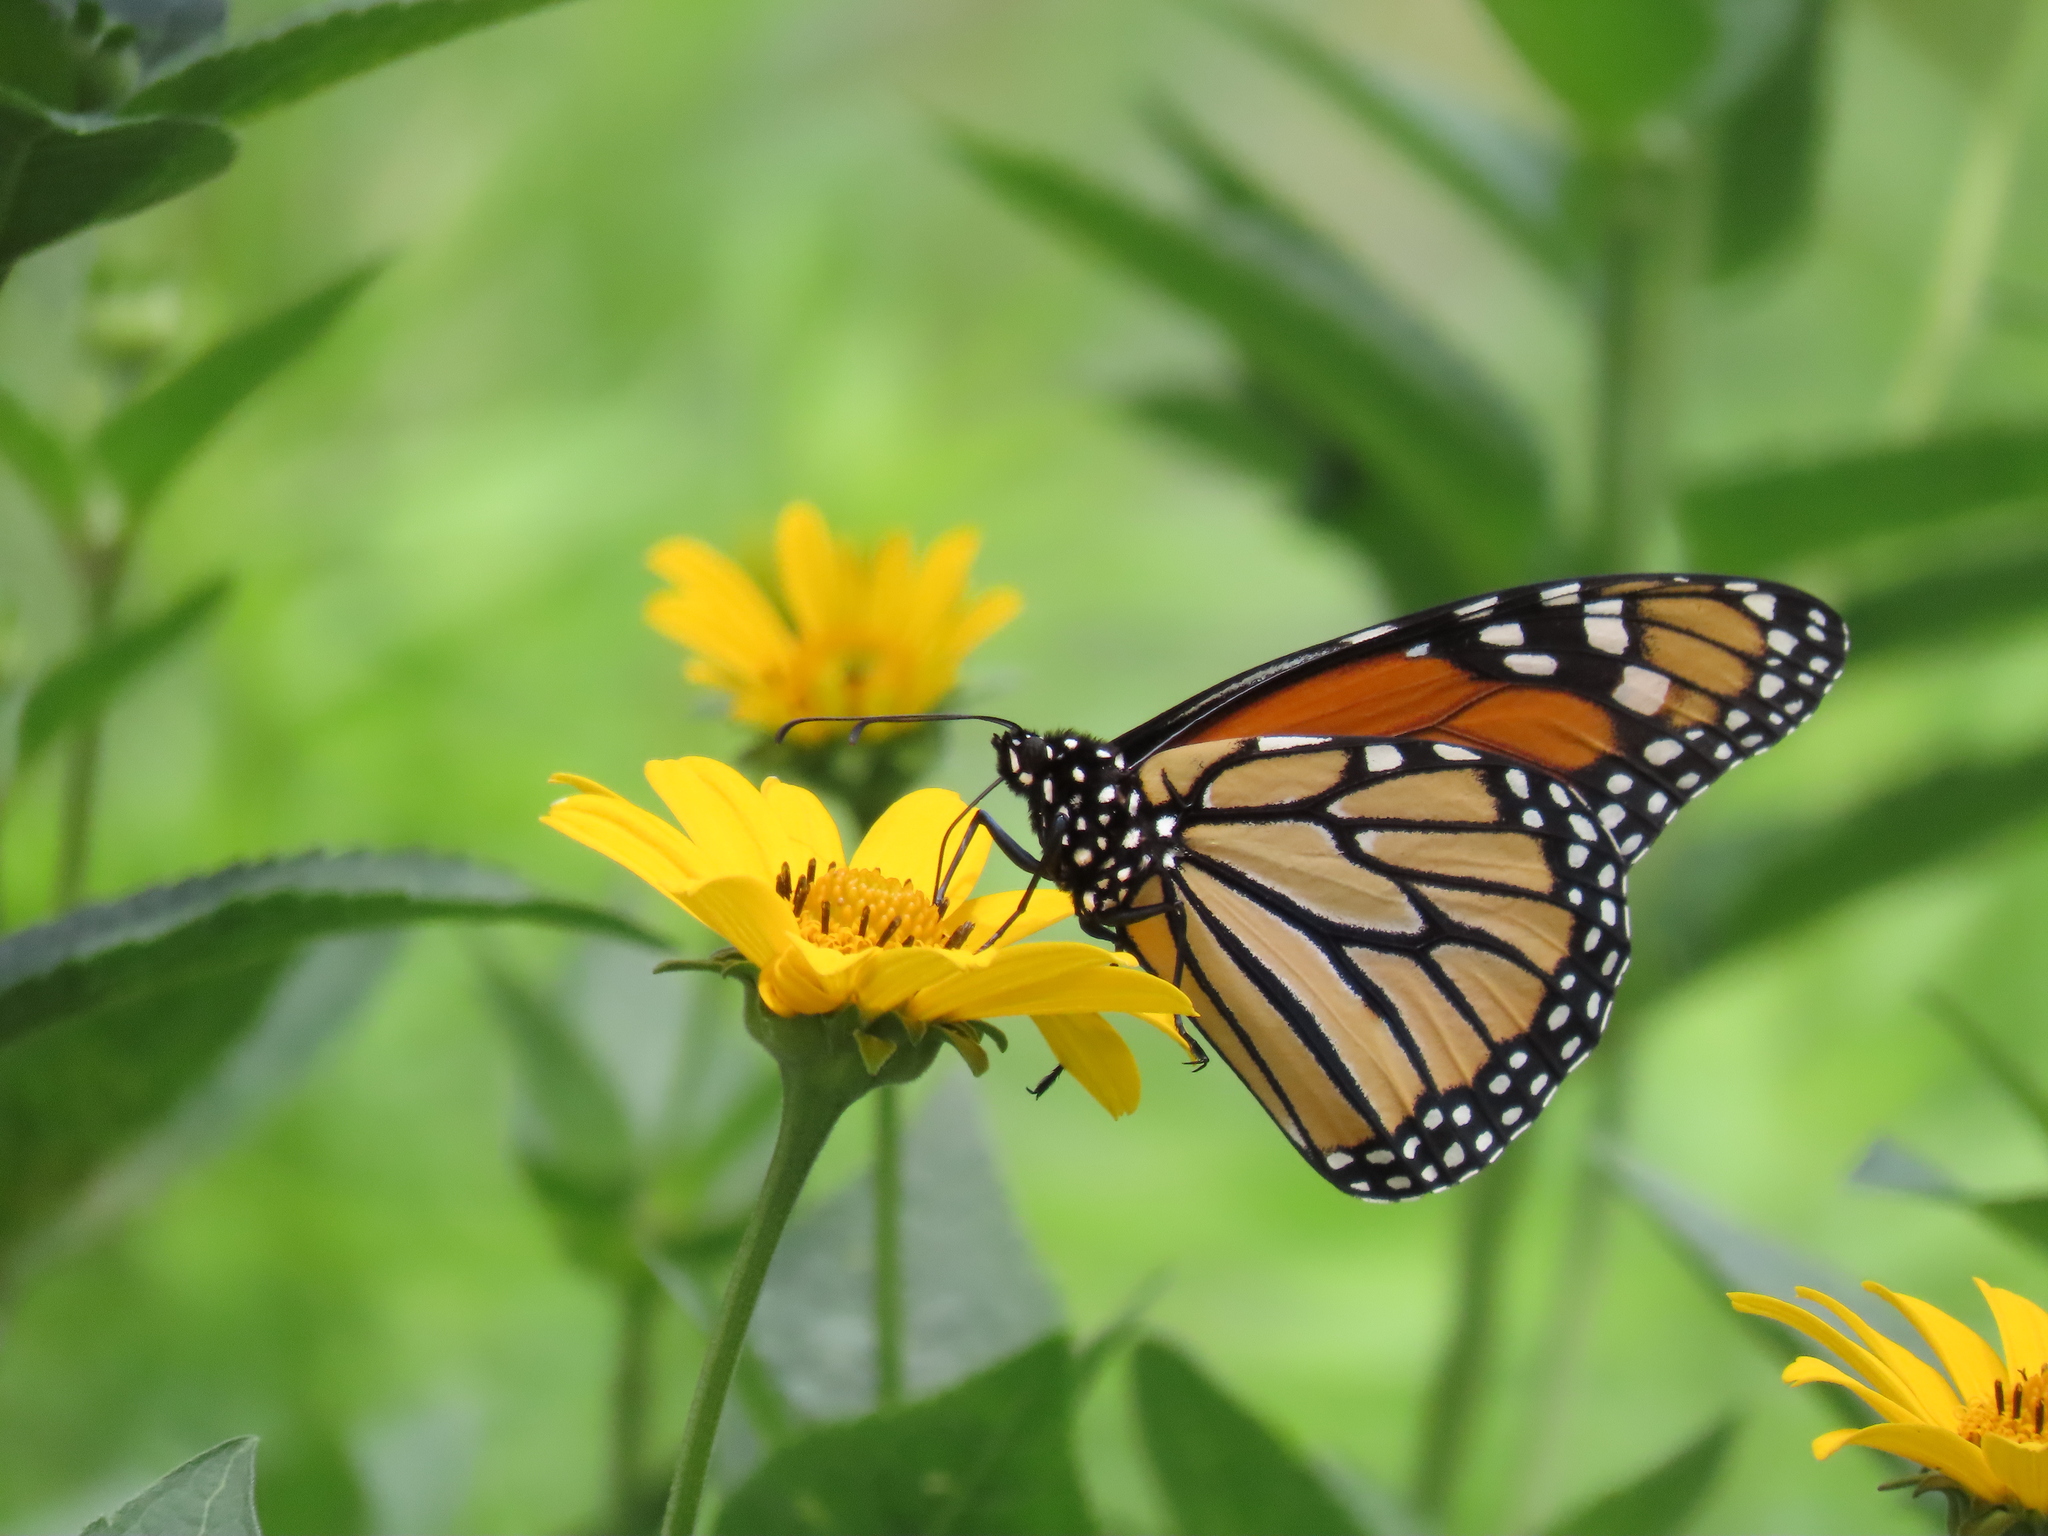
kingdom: Animalia
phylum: Arthropoda
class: Insecta
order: Lepidoptera
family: Nymphalidae
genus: Danaus
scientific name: Danaus plexippus
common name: Monarch
